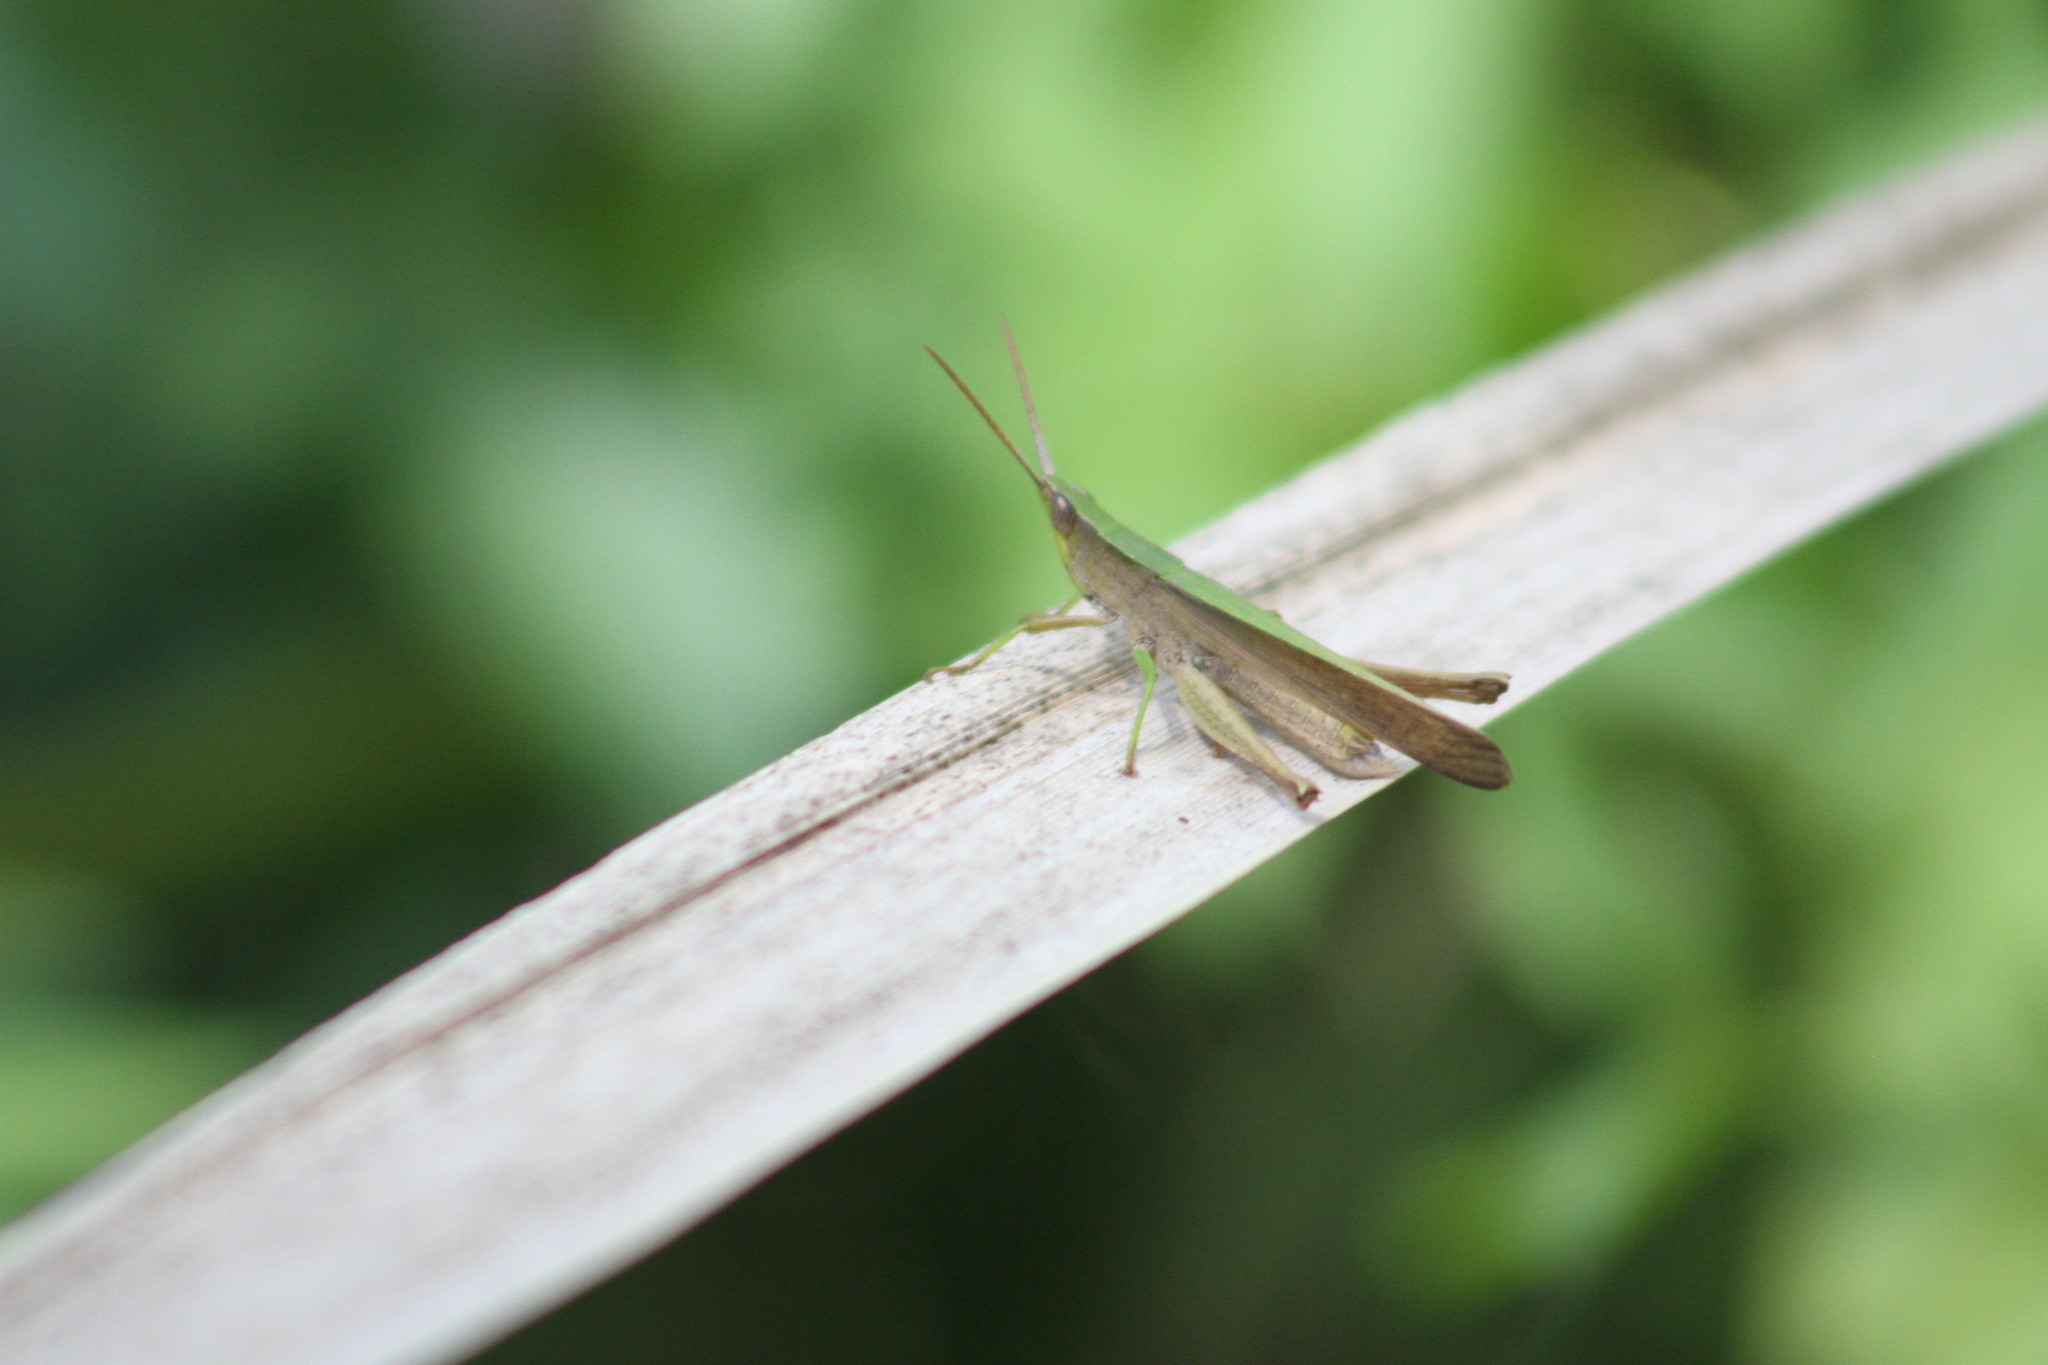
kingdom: Animalia
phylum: Arthropoda
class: Insecta
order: Orthoptera
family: Acrididae
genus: Metaleptea
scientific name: Metaleptea adspersa
